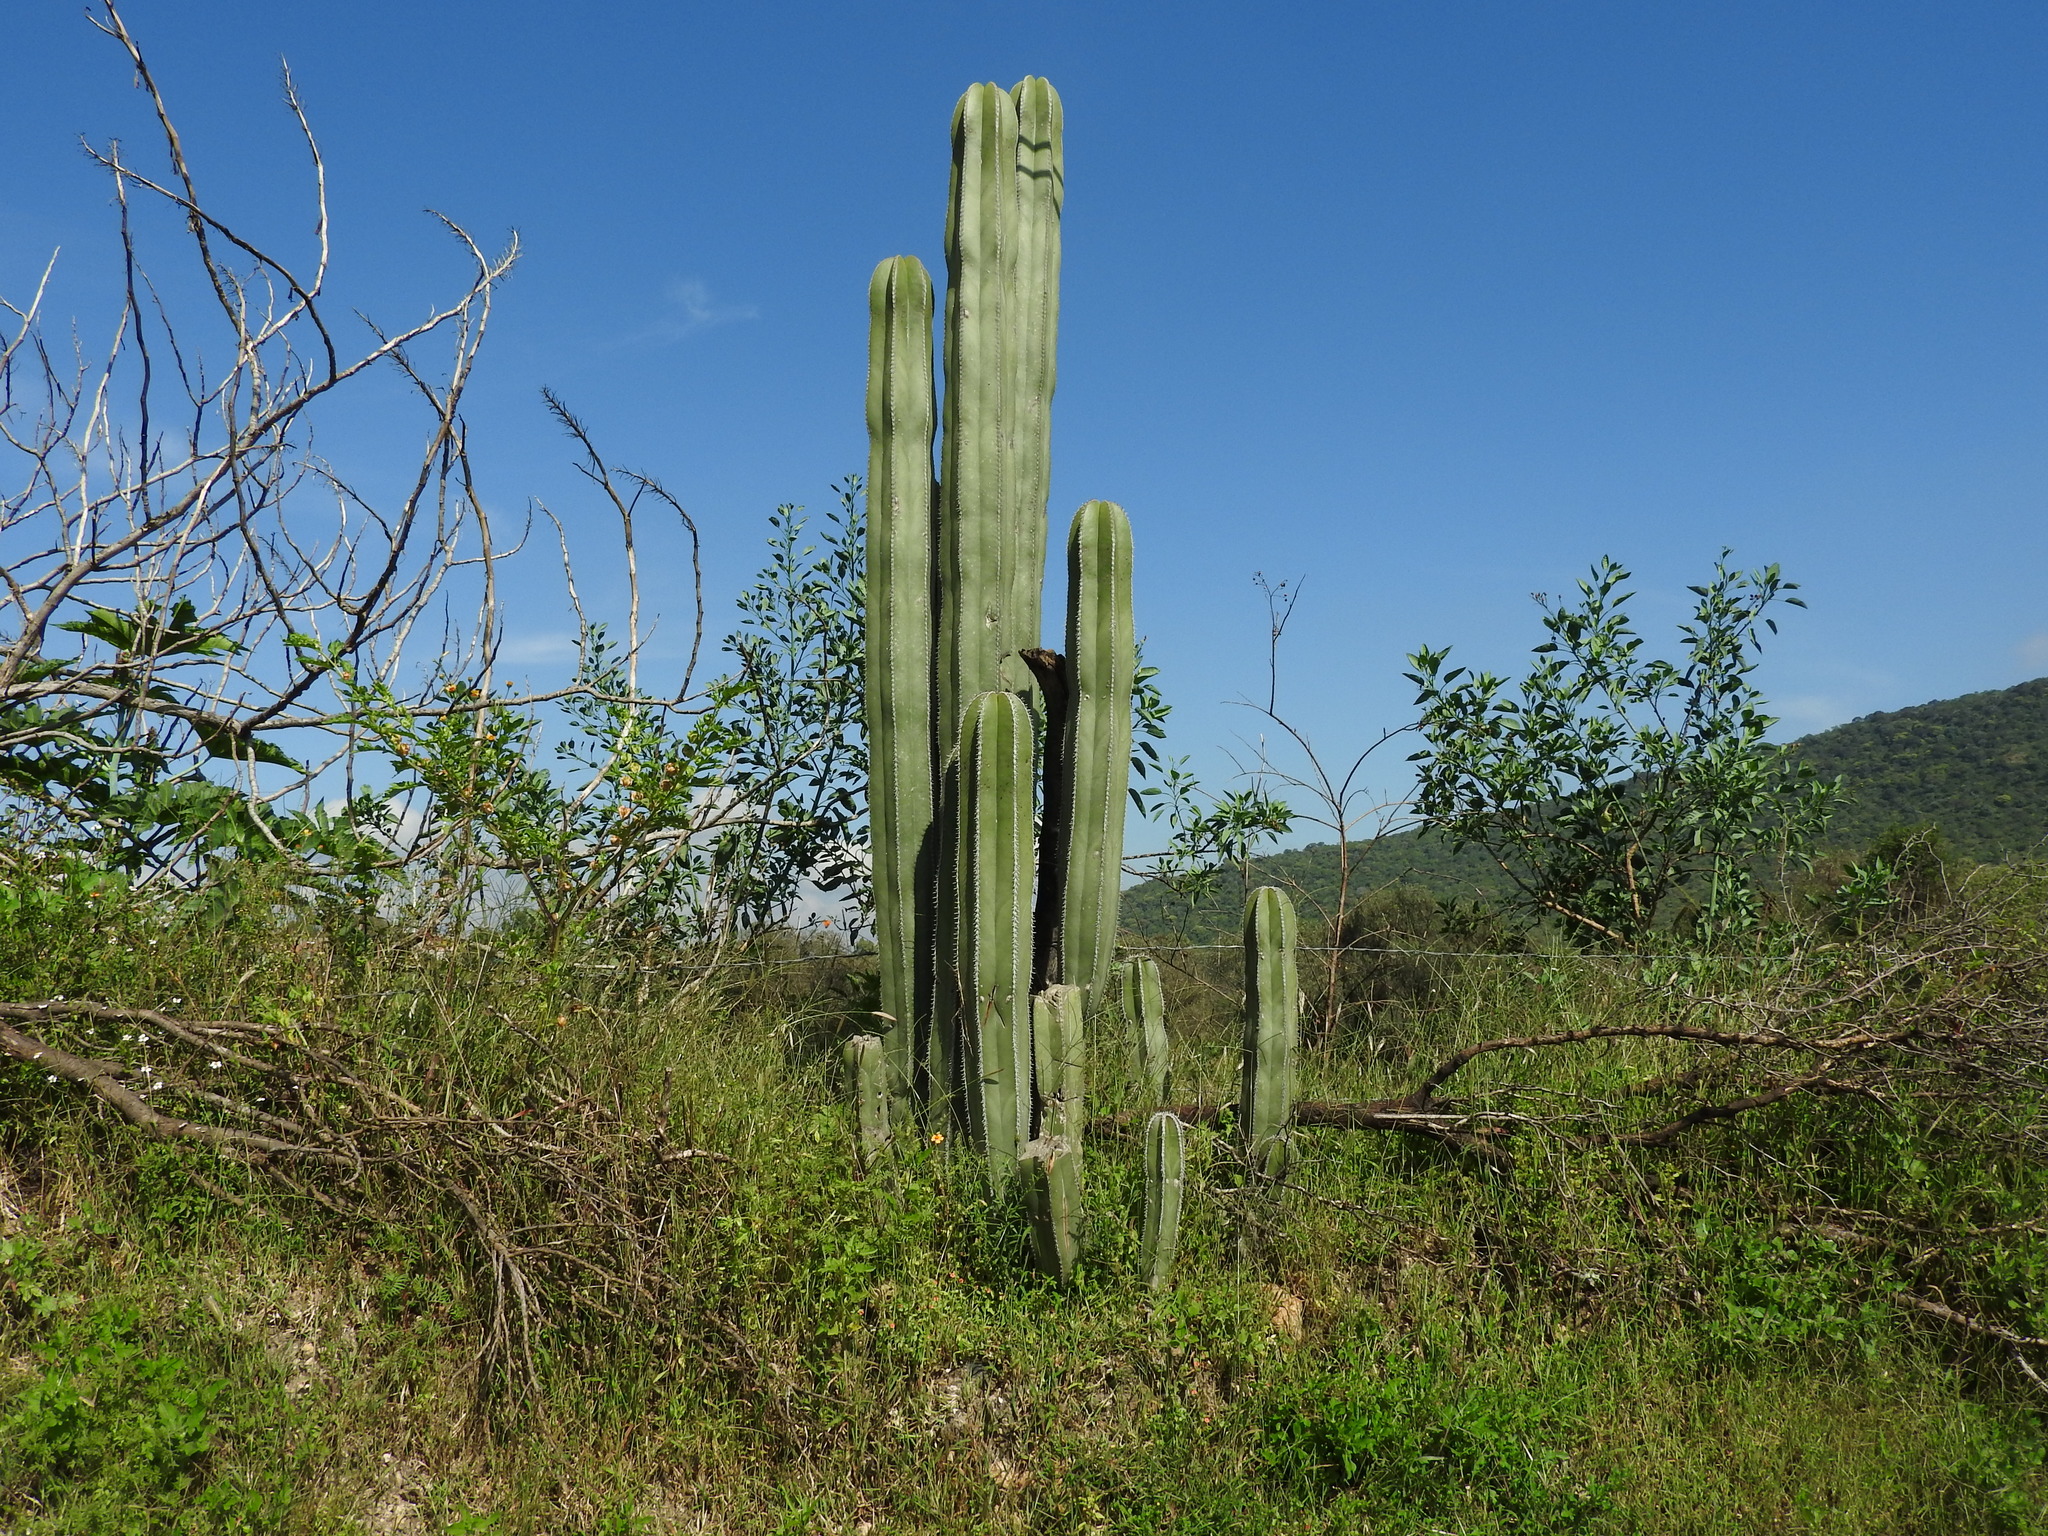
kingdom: Plantae
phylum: Tracheophyta
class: Magnoliopsida
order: Caryophyllales
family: Cactaceae
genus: Marginatocereus
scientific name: Marginatocereus marginatus
